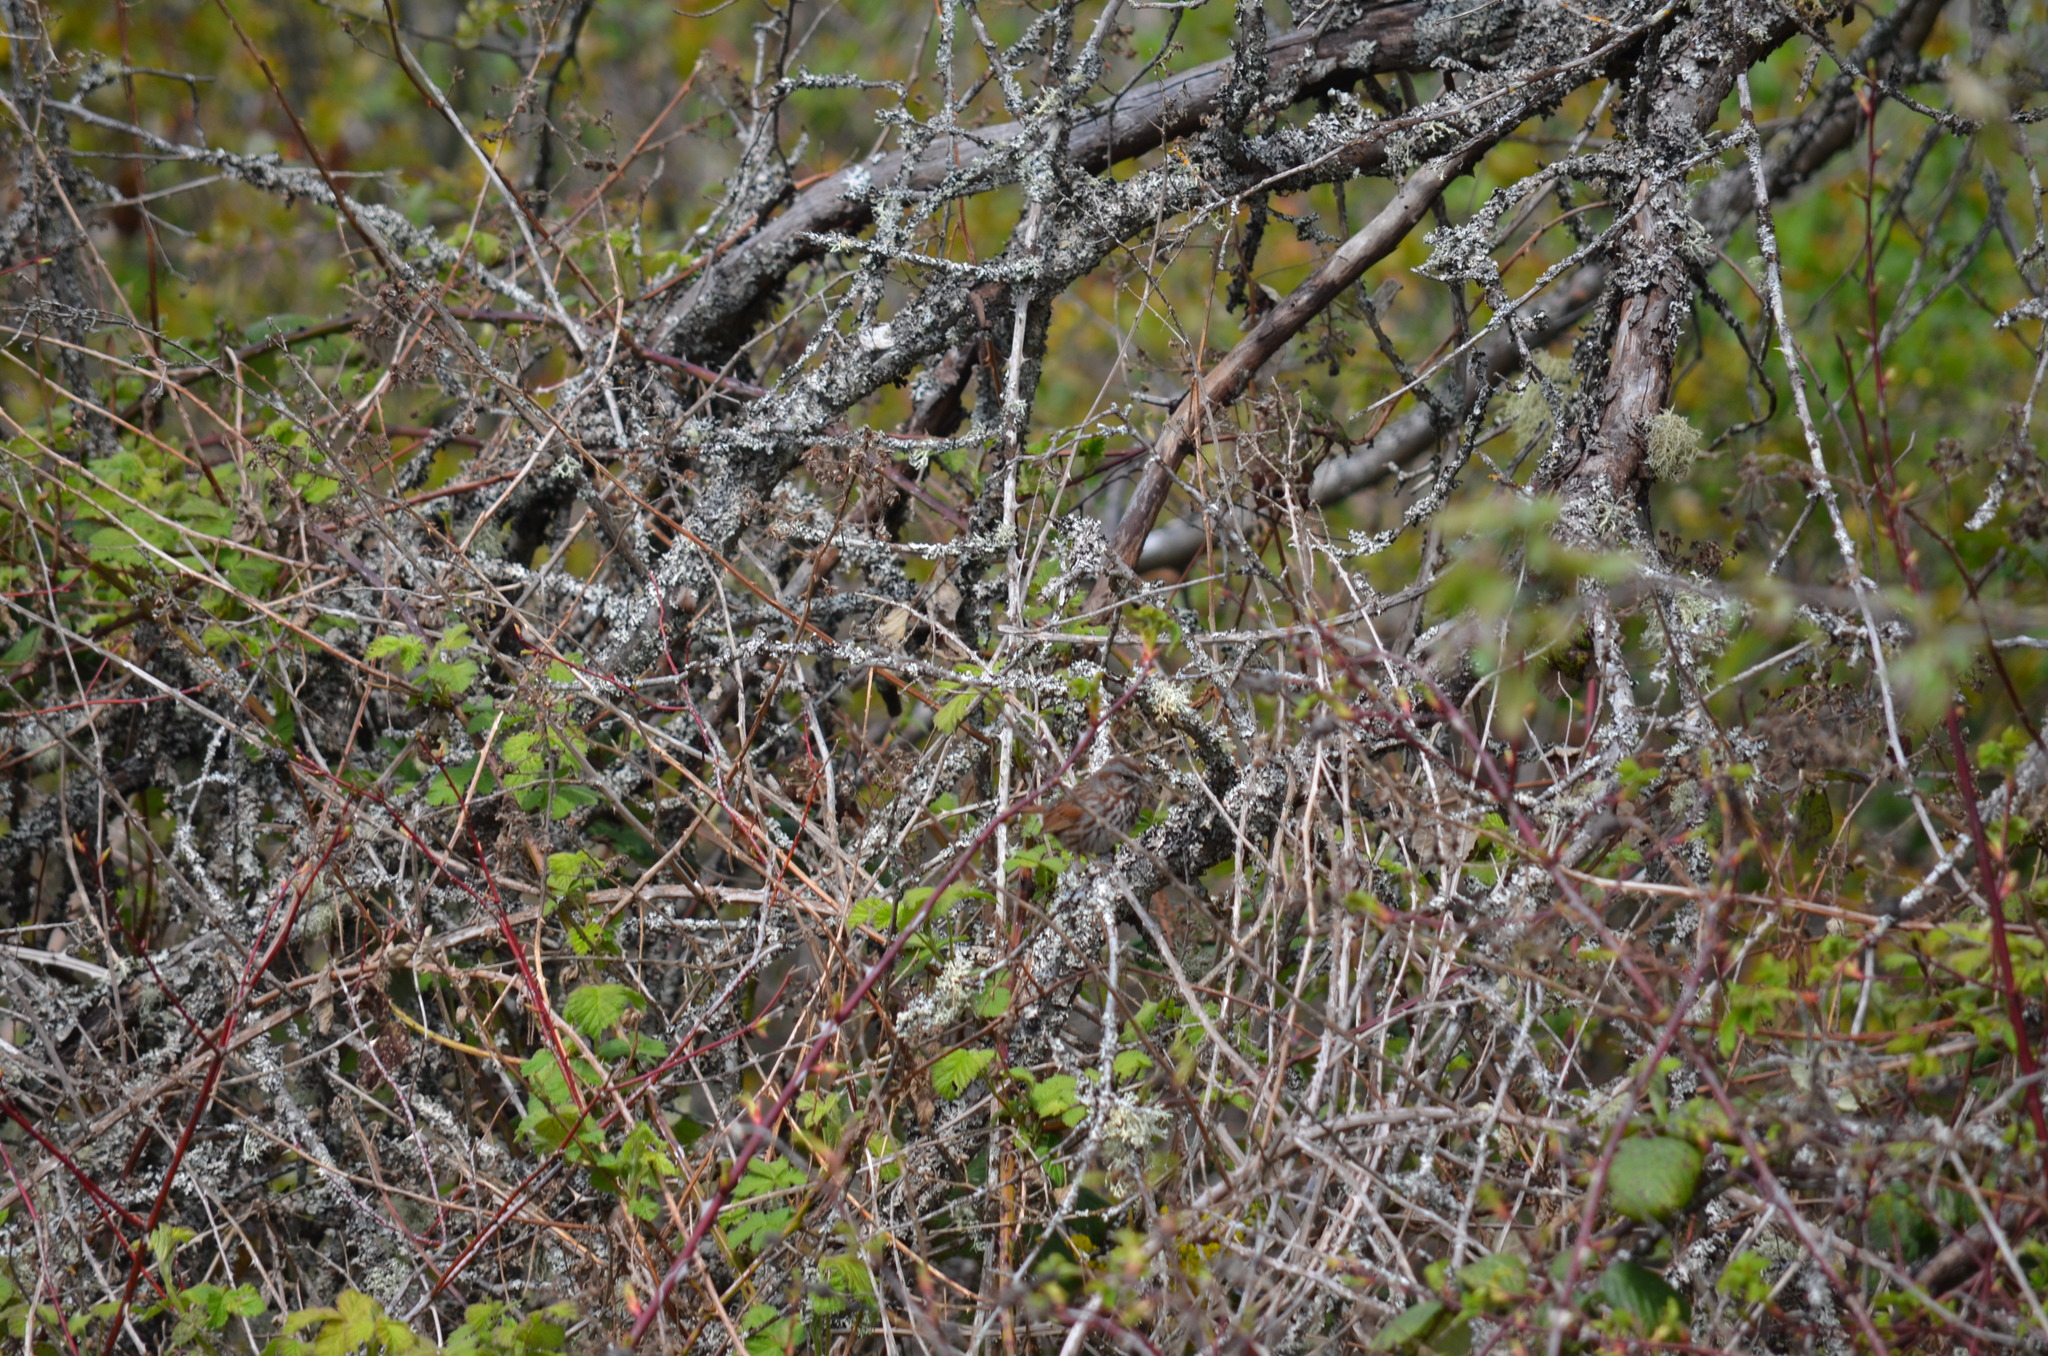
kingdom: Animalia
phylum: Chordata
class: Aves
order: Passeriformes
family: Passerellidae
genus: Melospiza
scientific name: Melospiza melodia
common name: Song sparrow
